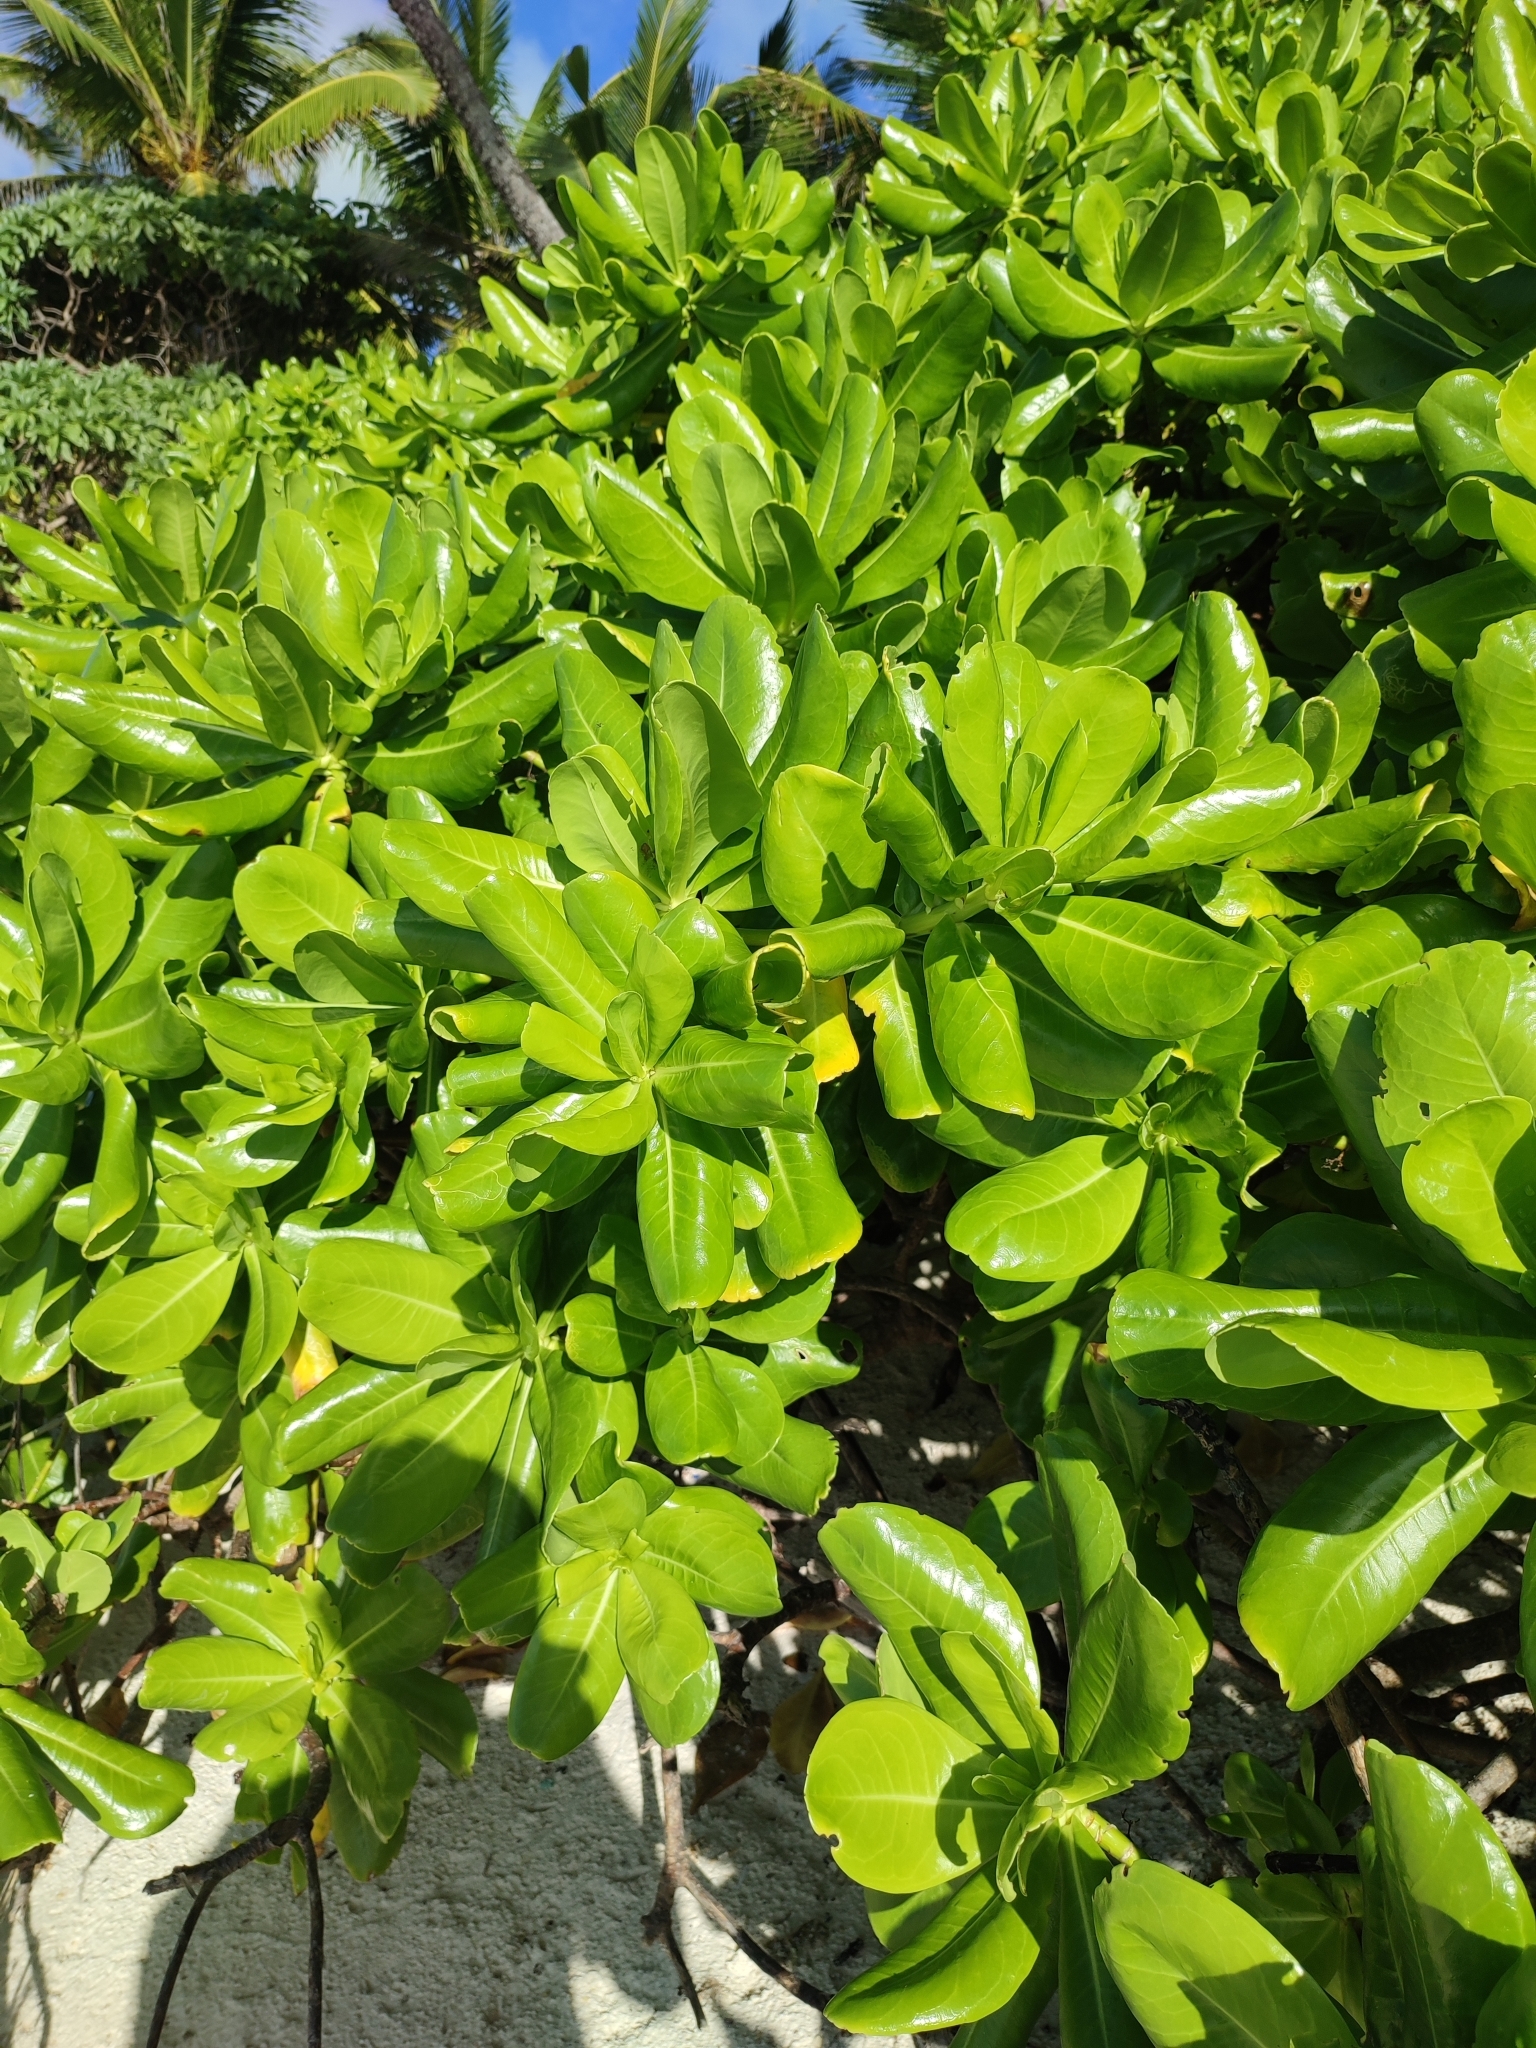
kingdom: Plantae
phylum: Tracheophyta
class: Magnoliopsida
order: Asterales
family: Goodeniaceae
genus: Scaevola
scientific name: Scaevola taccada
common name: Sea lettucetree
